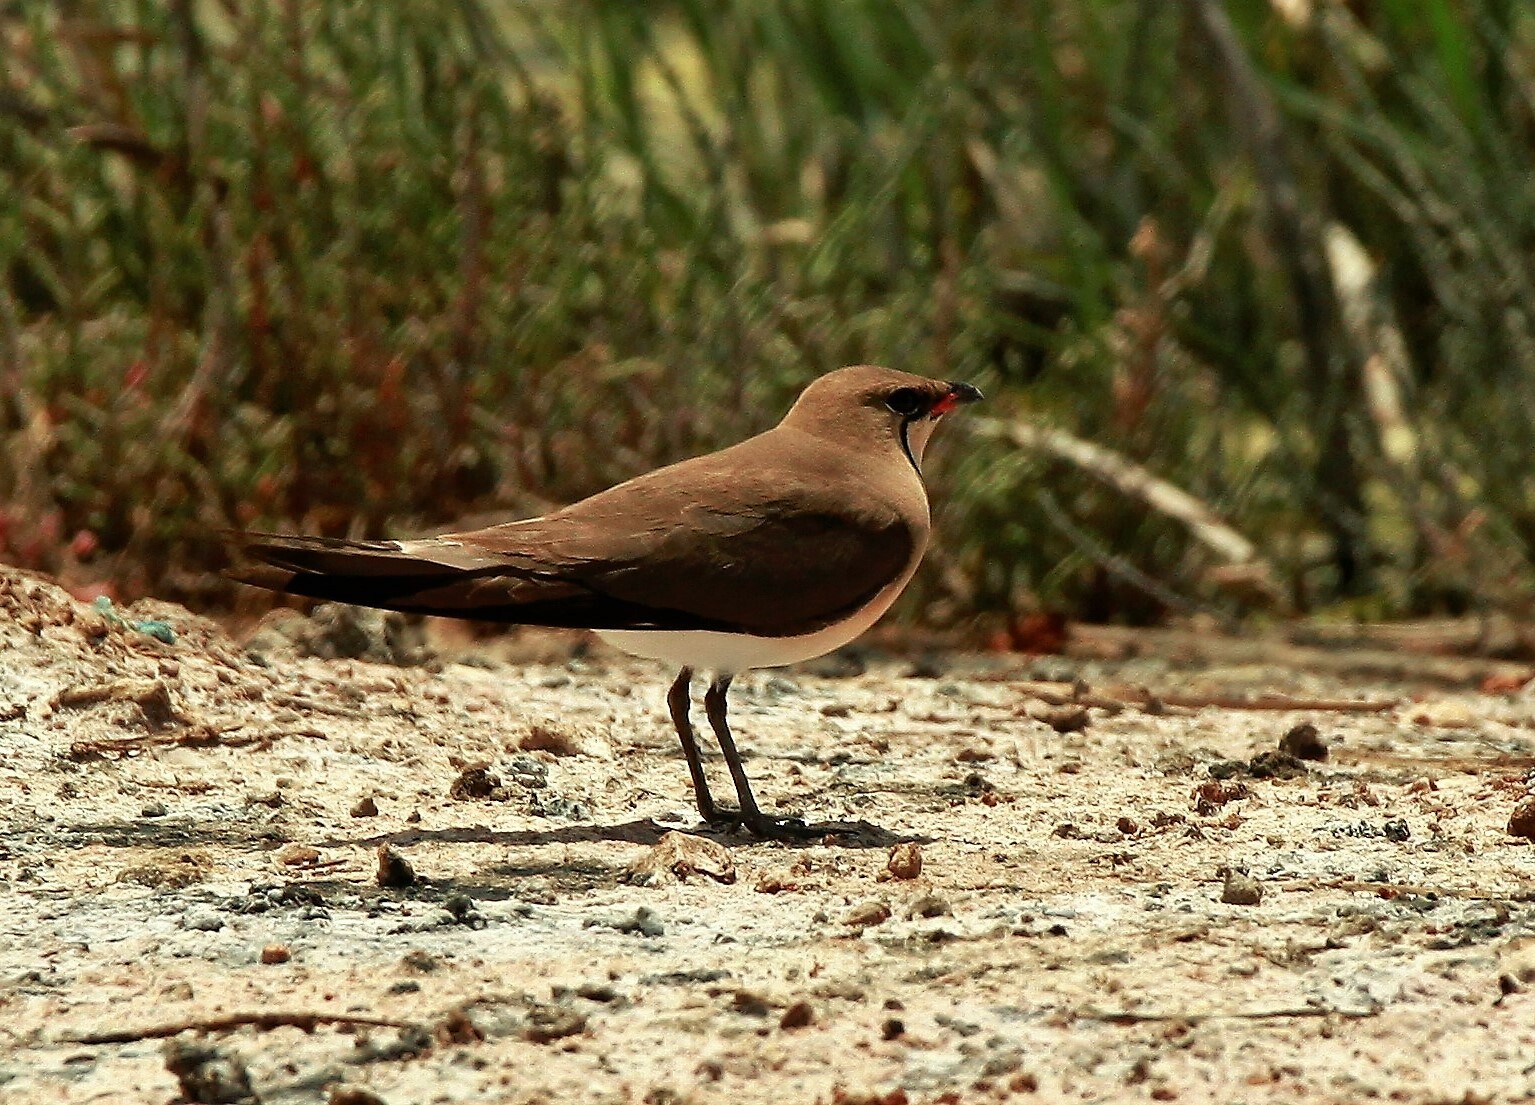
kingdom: Animalia
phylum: Chordata
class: Aves
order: Charadriiformes
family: Glareolidae
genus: Glareola
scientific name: Glareola pratincola
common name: Collared pratincole
